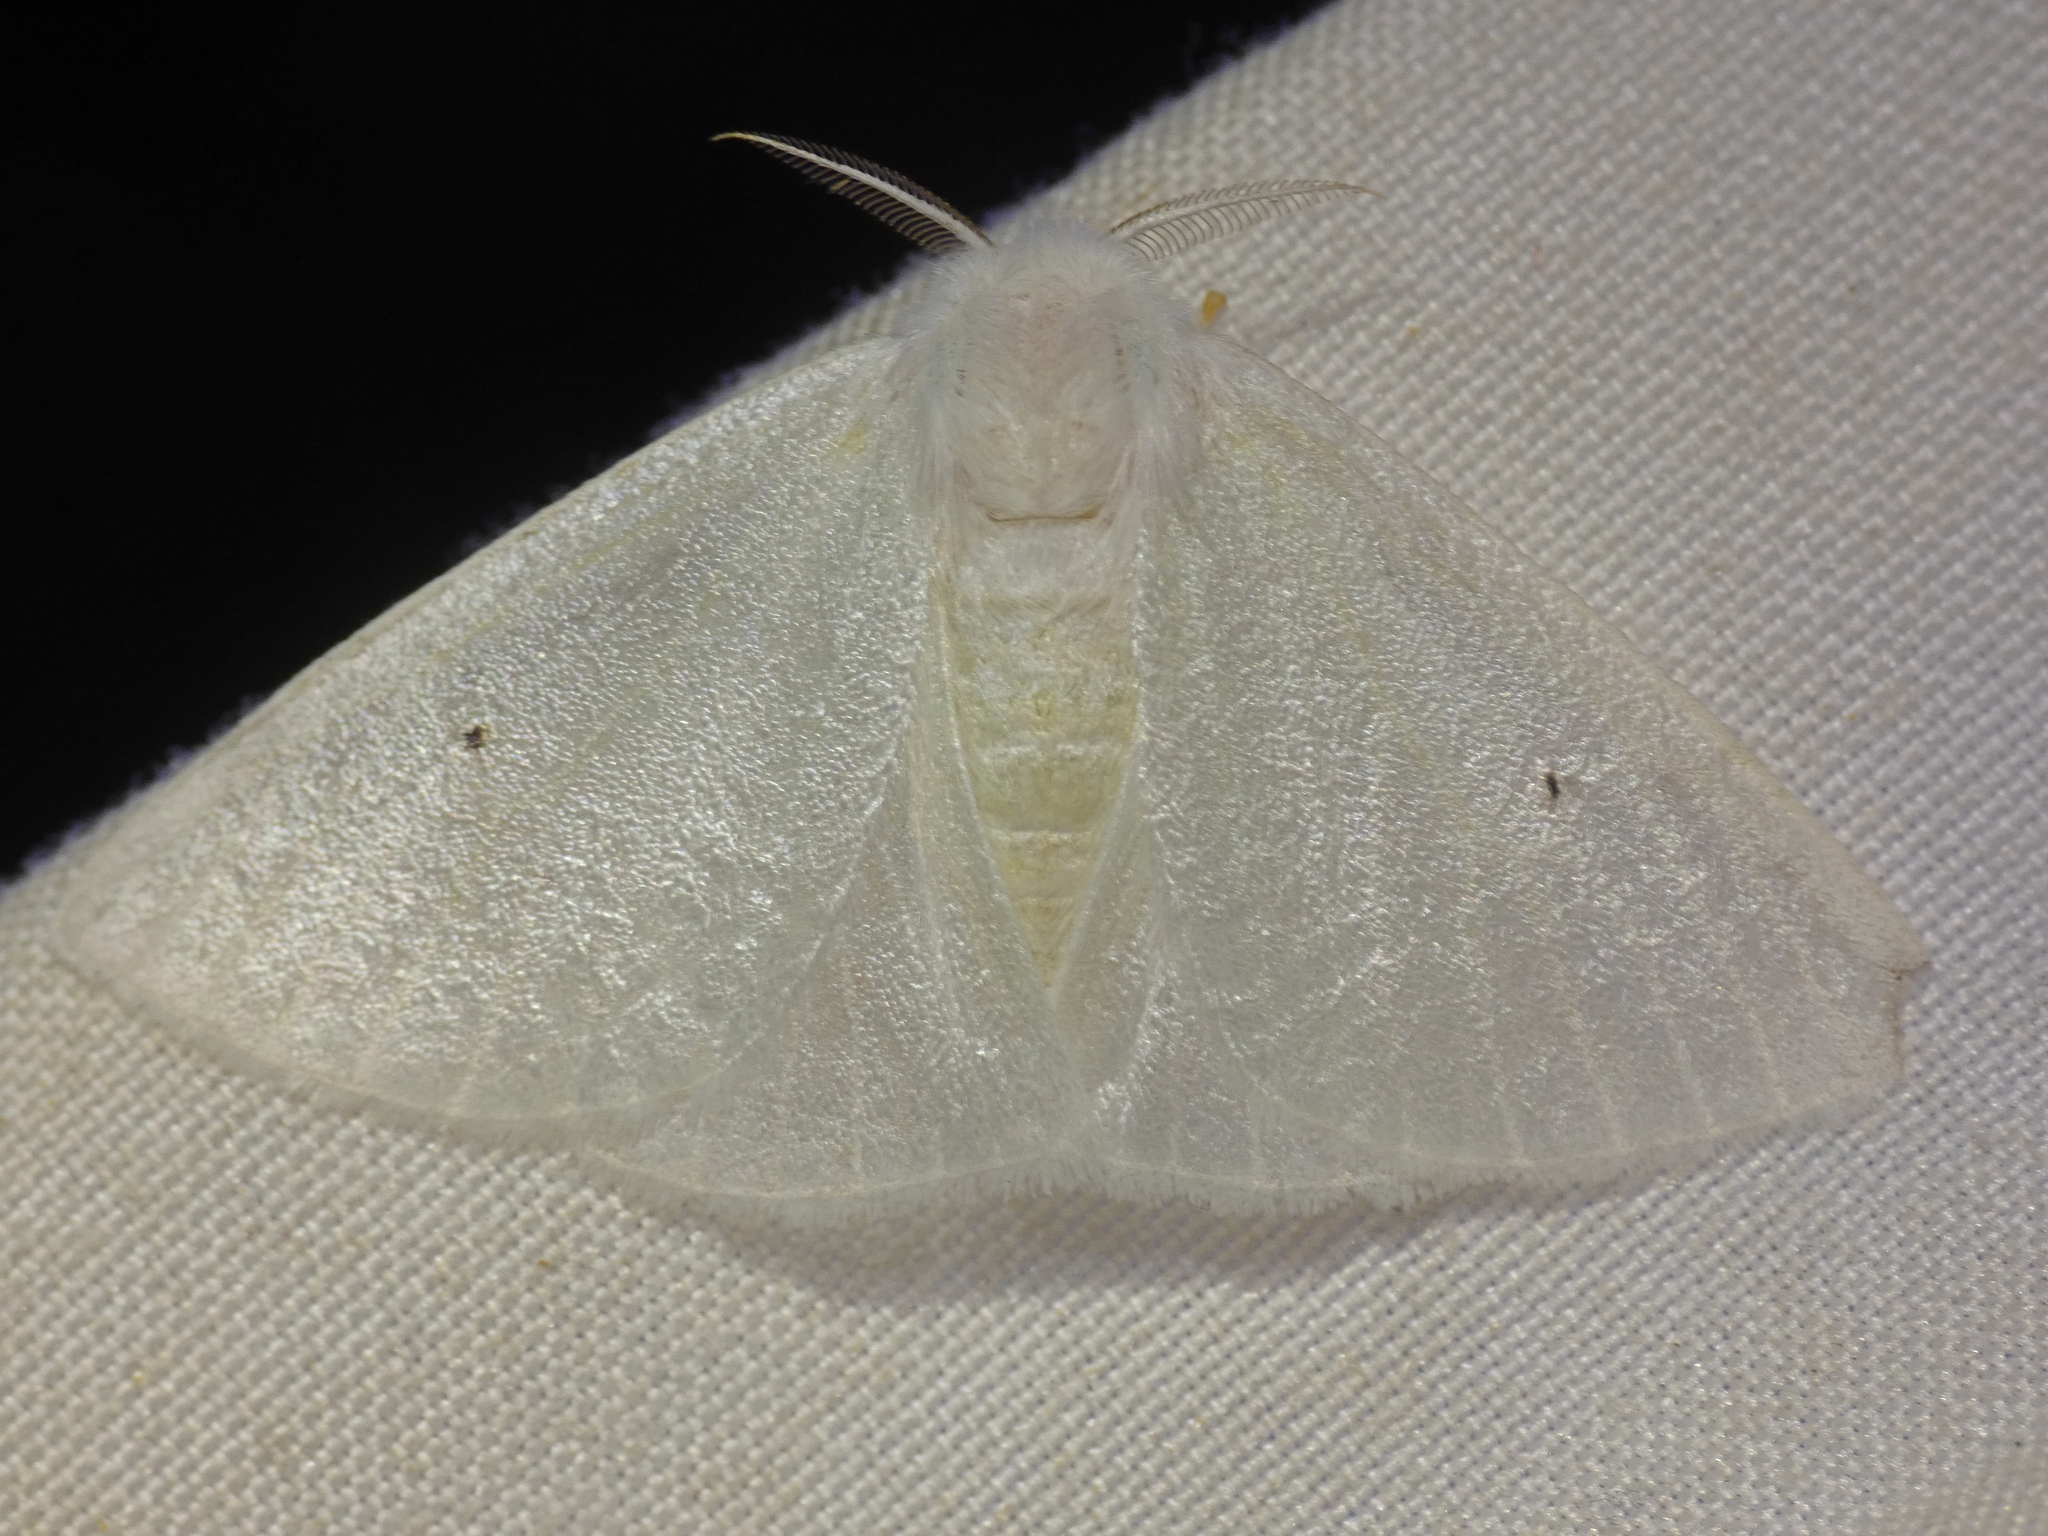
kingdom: Animalia
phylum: Arthropoda
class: Insecta
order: Lepidoptera
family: Erebidae
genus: Arctornis
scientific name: Arctornis lucens
